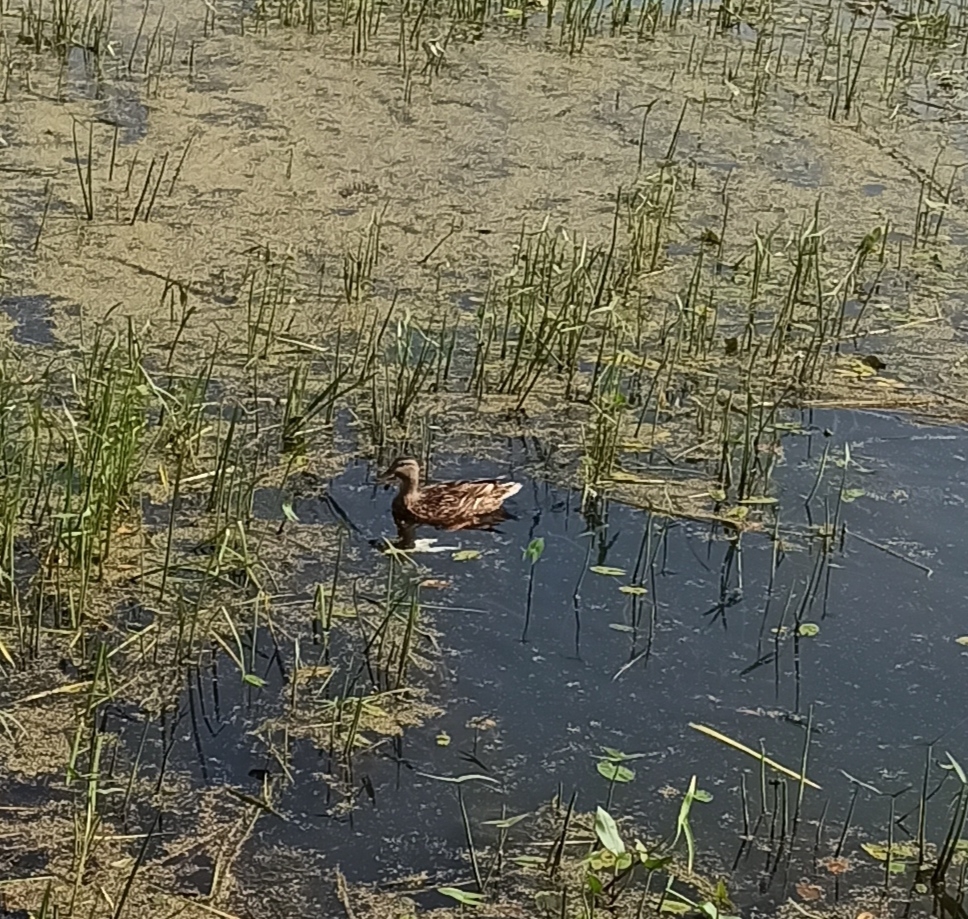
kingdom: Animalia
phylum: Chordata
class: Aves
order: Anseriformes
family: Anatidae
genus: Anas
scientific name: Anas platyrhynchos
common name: Mallard
